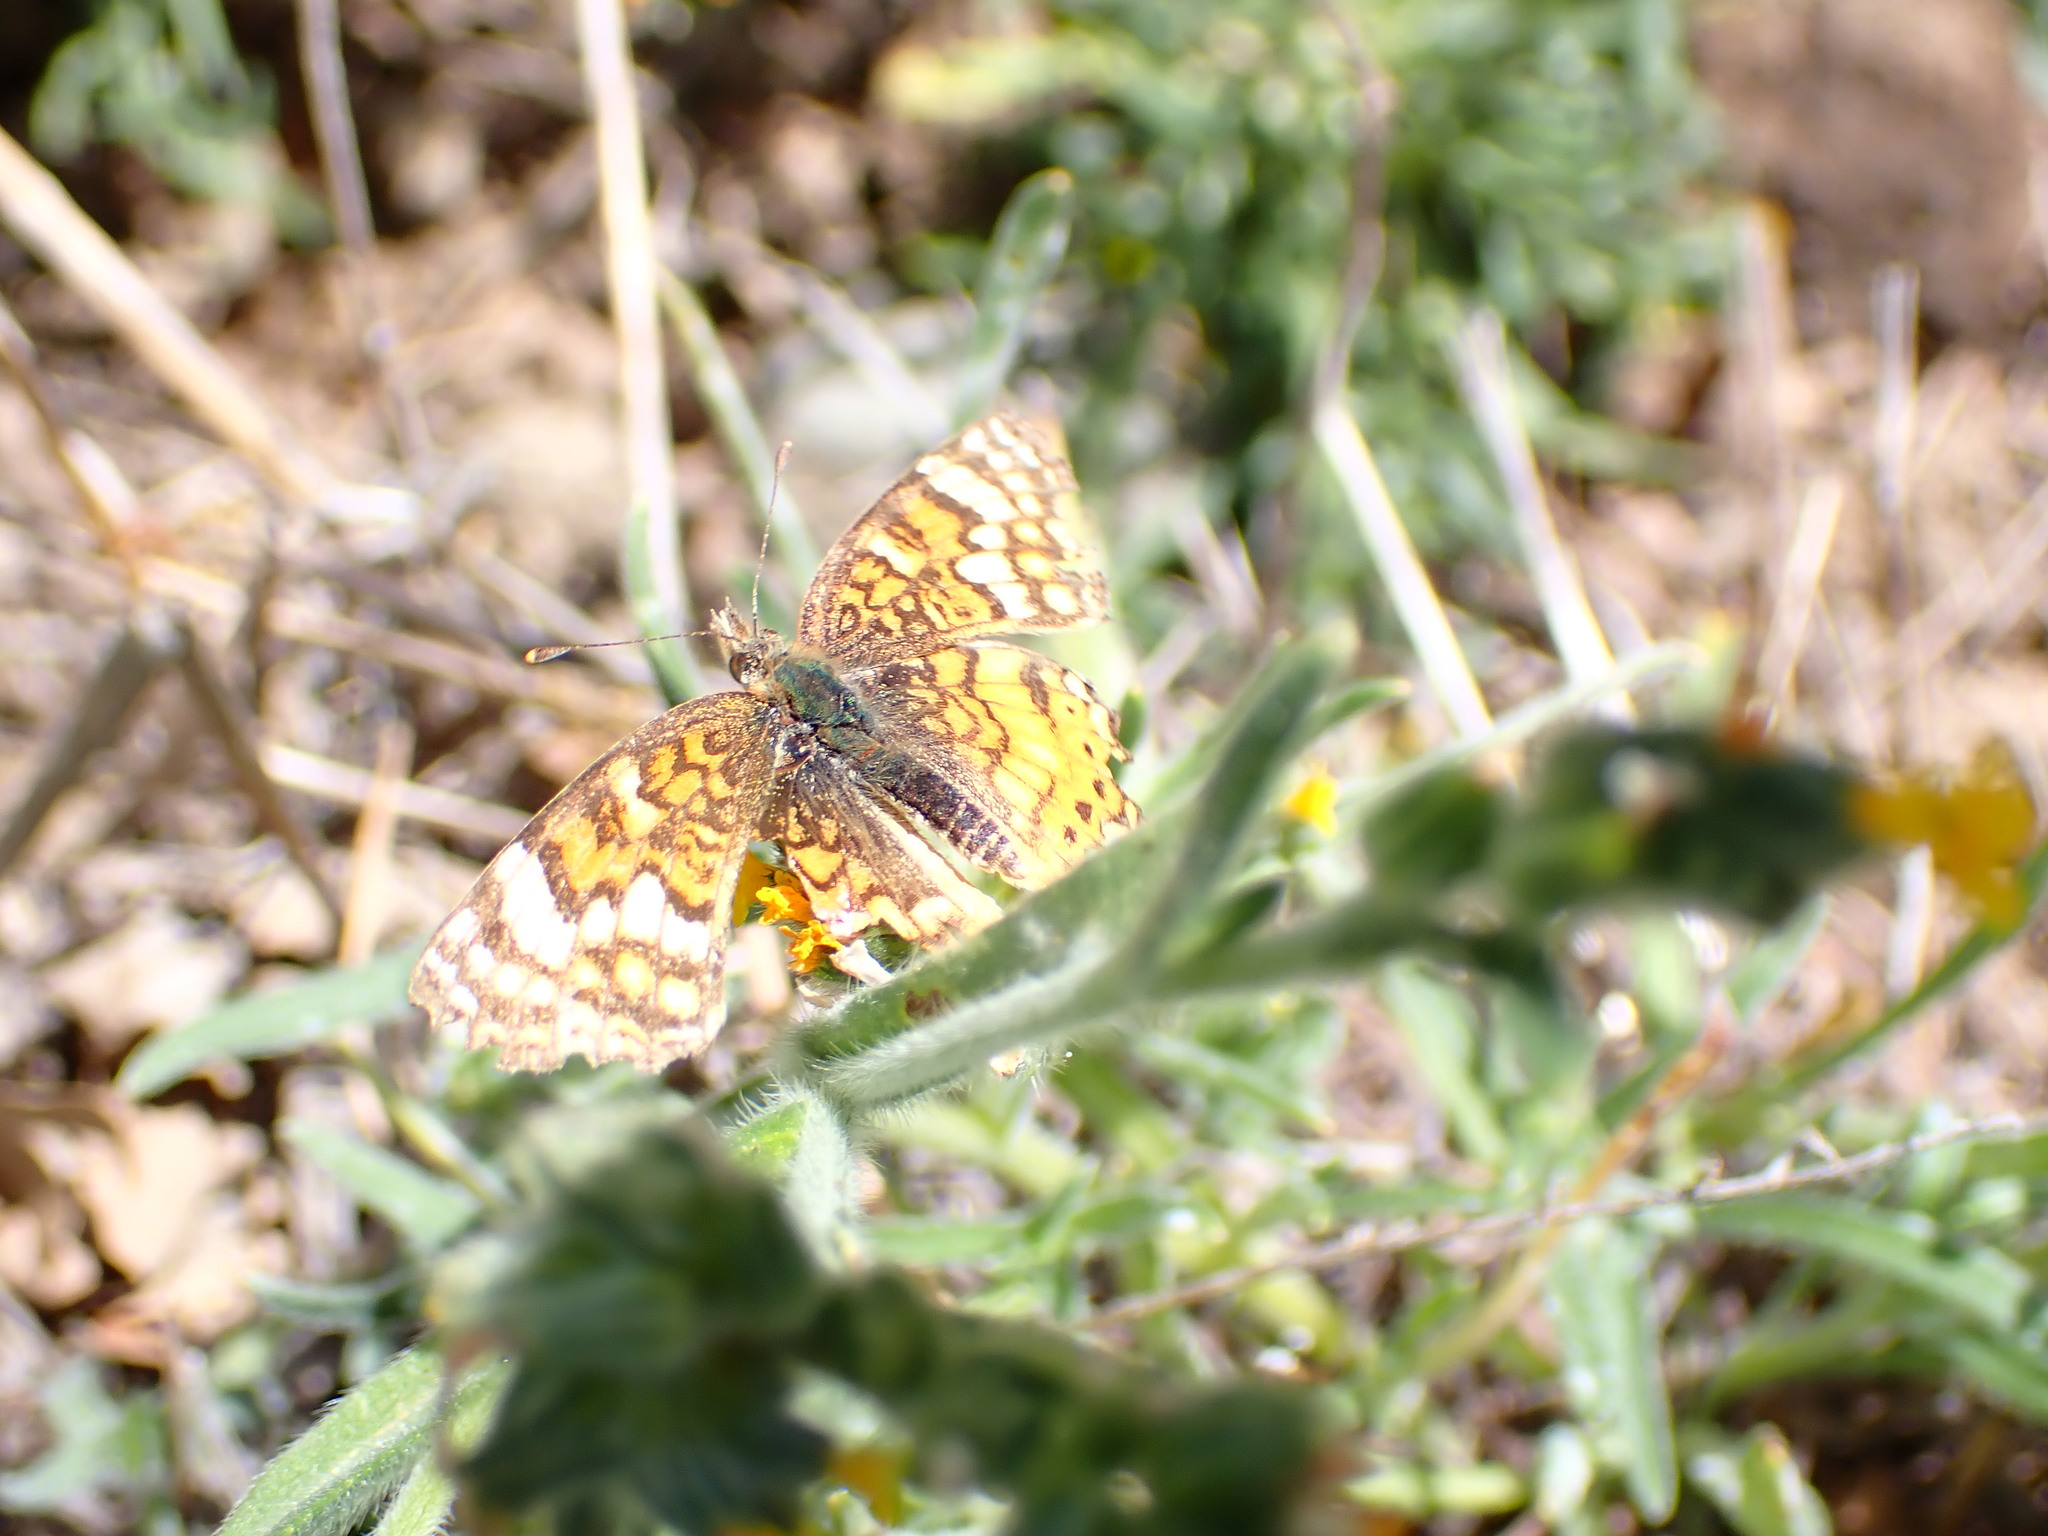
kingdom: Animalia
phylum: Arthropoda
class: Insecta
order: Lepidoptera
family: Nymphalidae
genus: Eresia
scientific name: Eresia aveyrona
